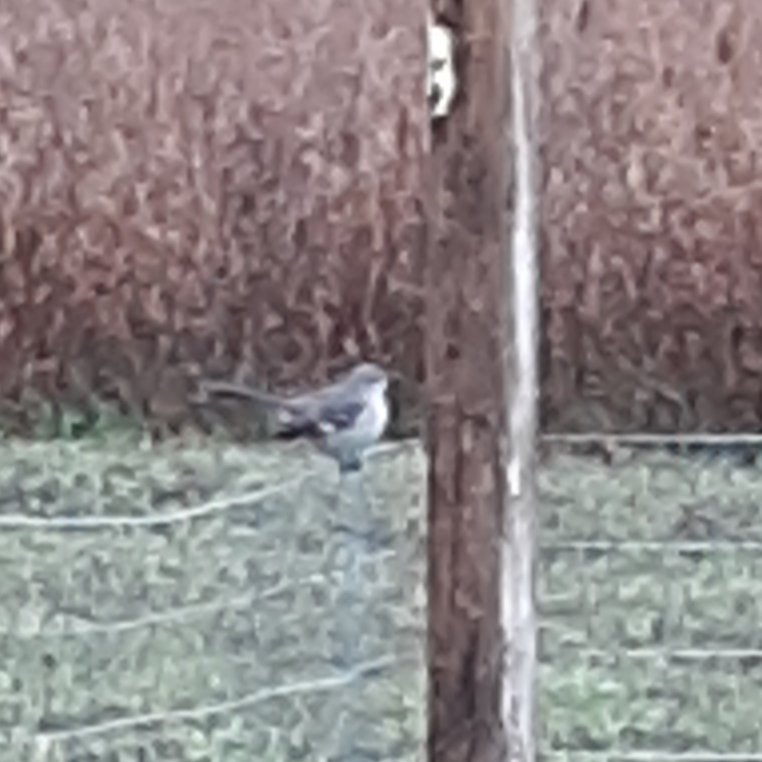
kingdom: Animalia
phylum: Chordata
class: Aves
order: Passeriformes
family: Mimidae
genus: Mimus
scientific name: Mimus polyglottos
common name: Northern mockingbird
